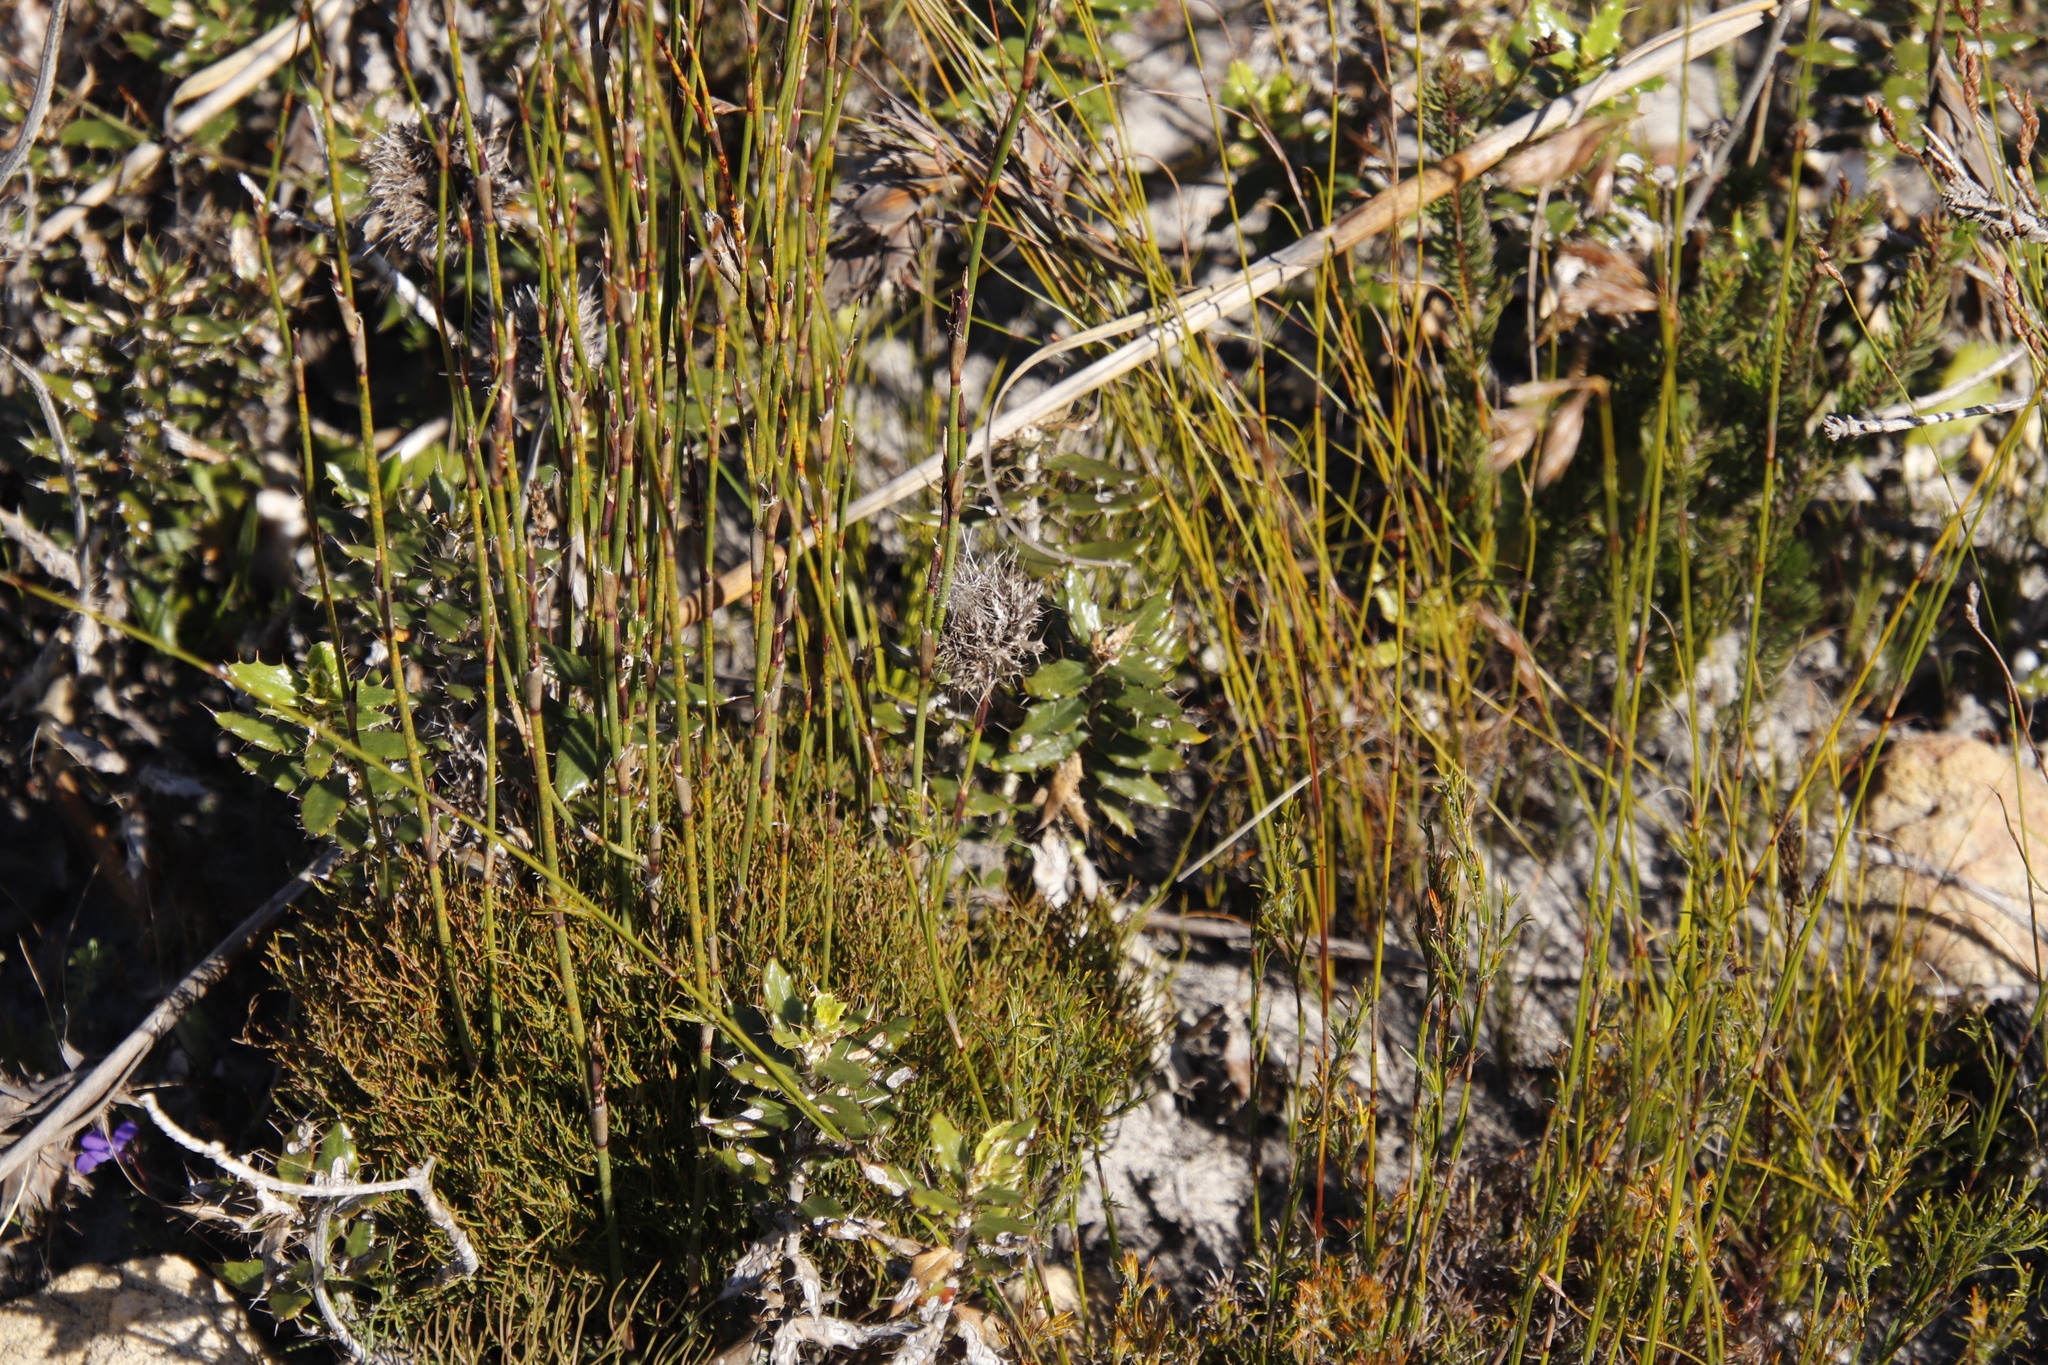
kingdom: Plantae
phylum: Tracheophyta
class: Magnoliopsida
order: Asterales
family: Asteraceae
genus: Berkheya
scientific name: Berkheya barbata
